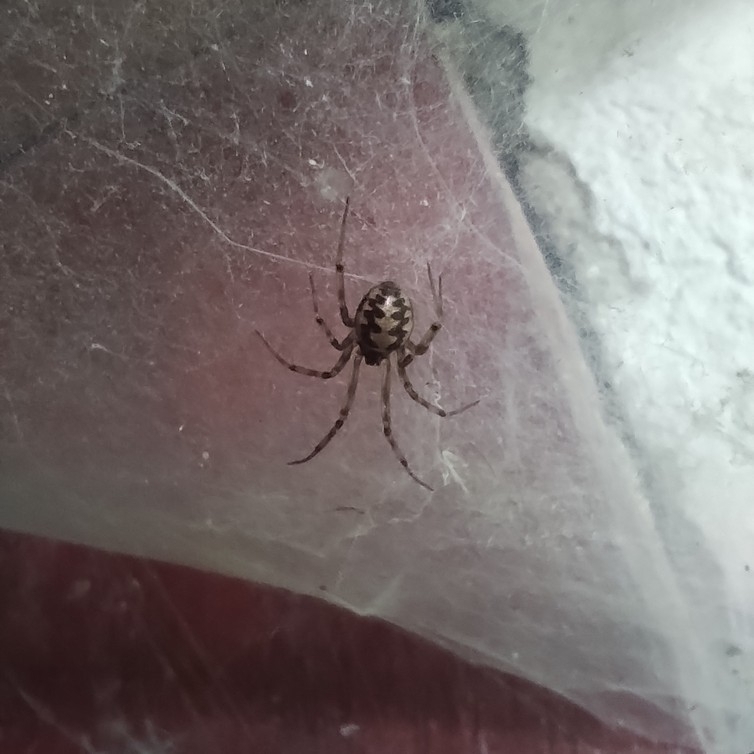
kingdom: Animalia
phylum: Arthropoda
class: Arachnida
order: Araneae
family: Theridiidae
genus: Steatoda
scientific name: Steatoda triangulosa
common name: Triangulate bud spider
